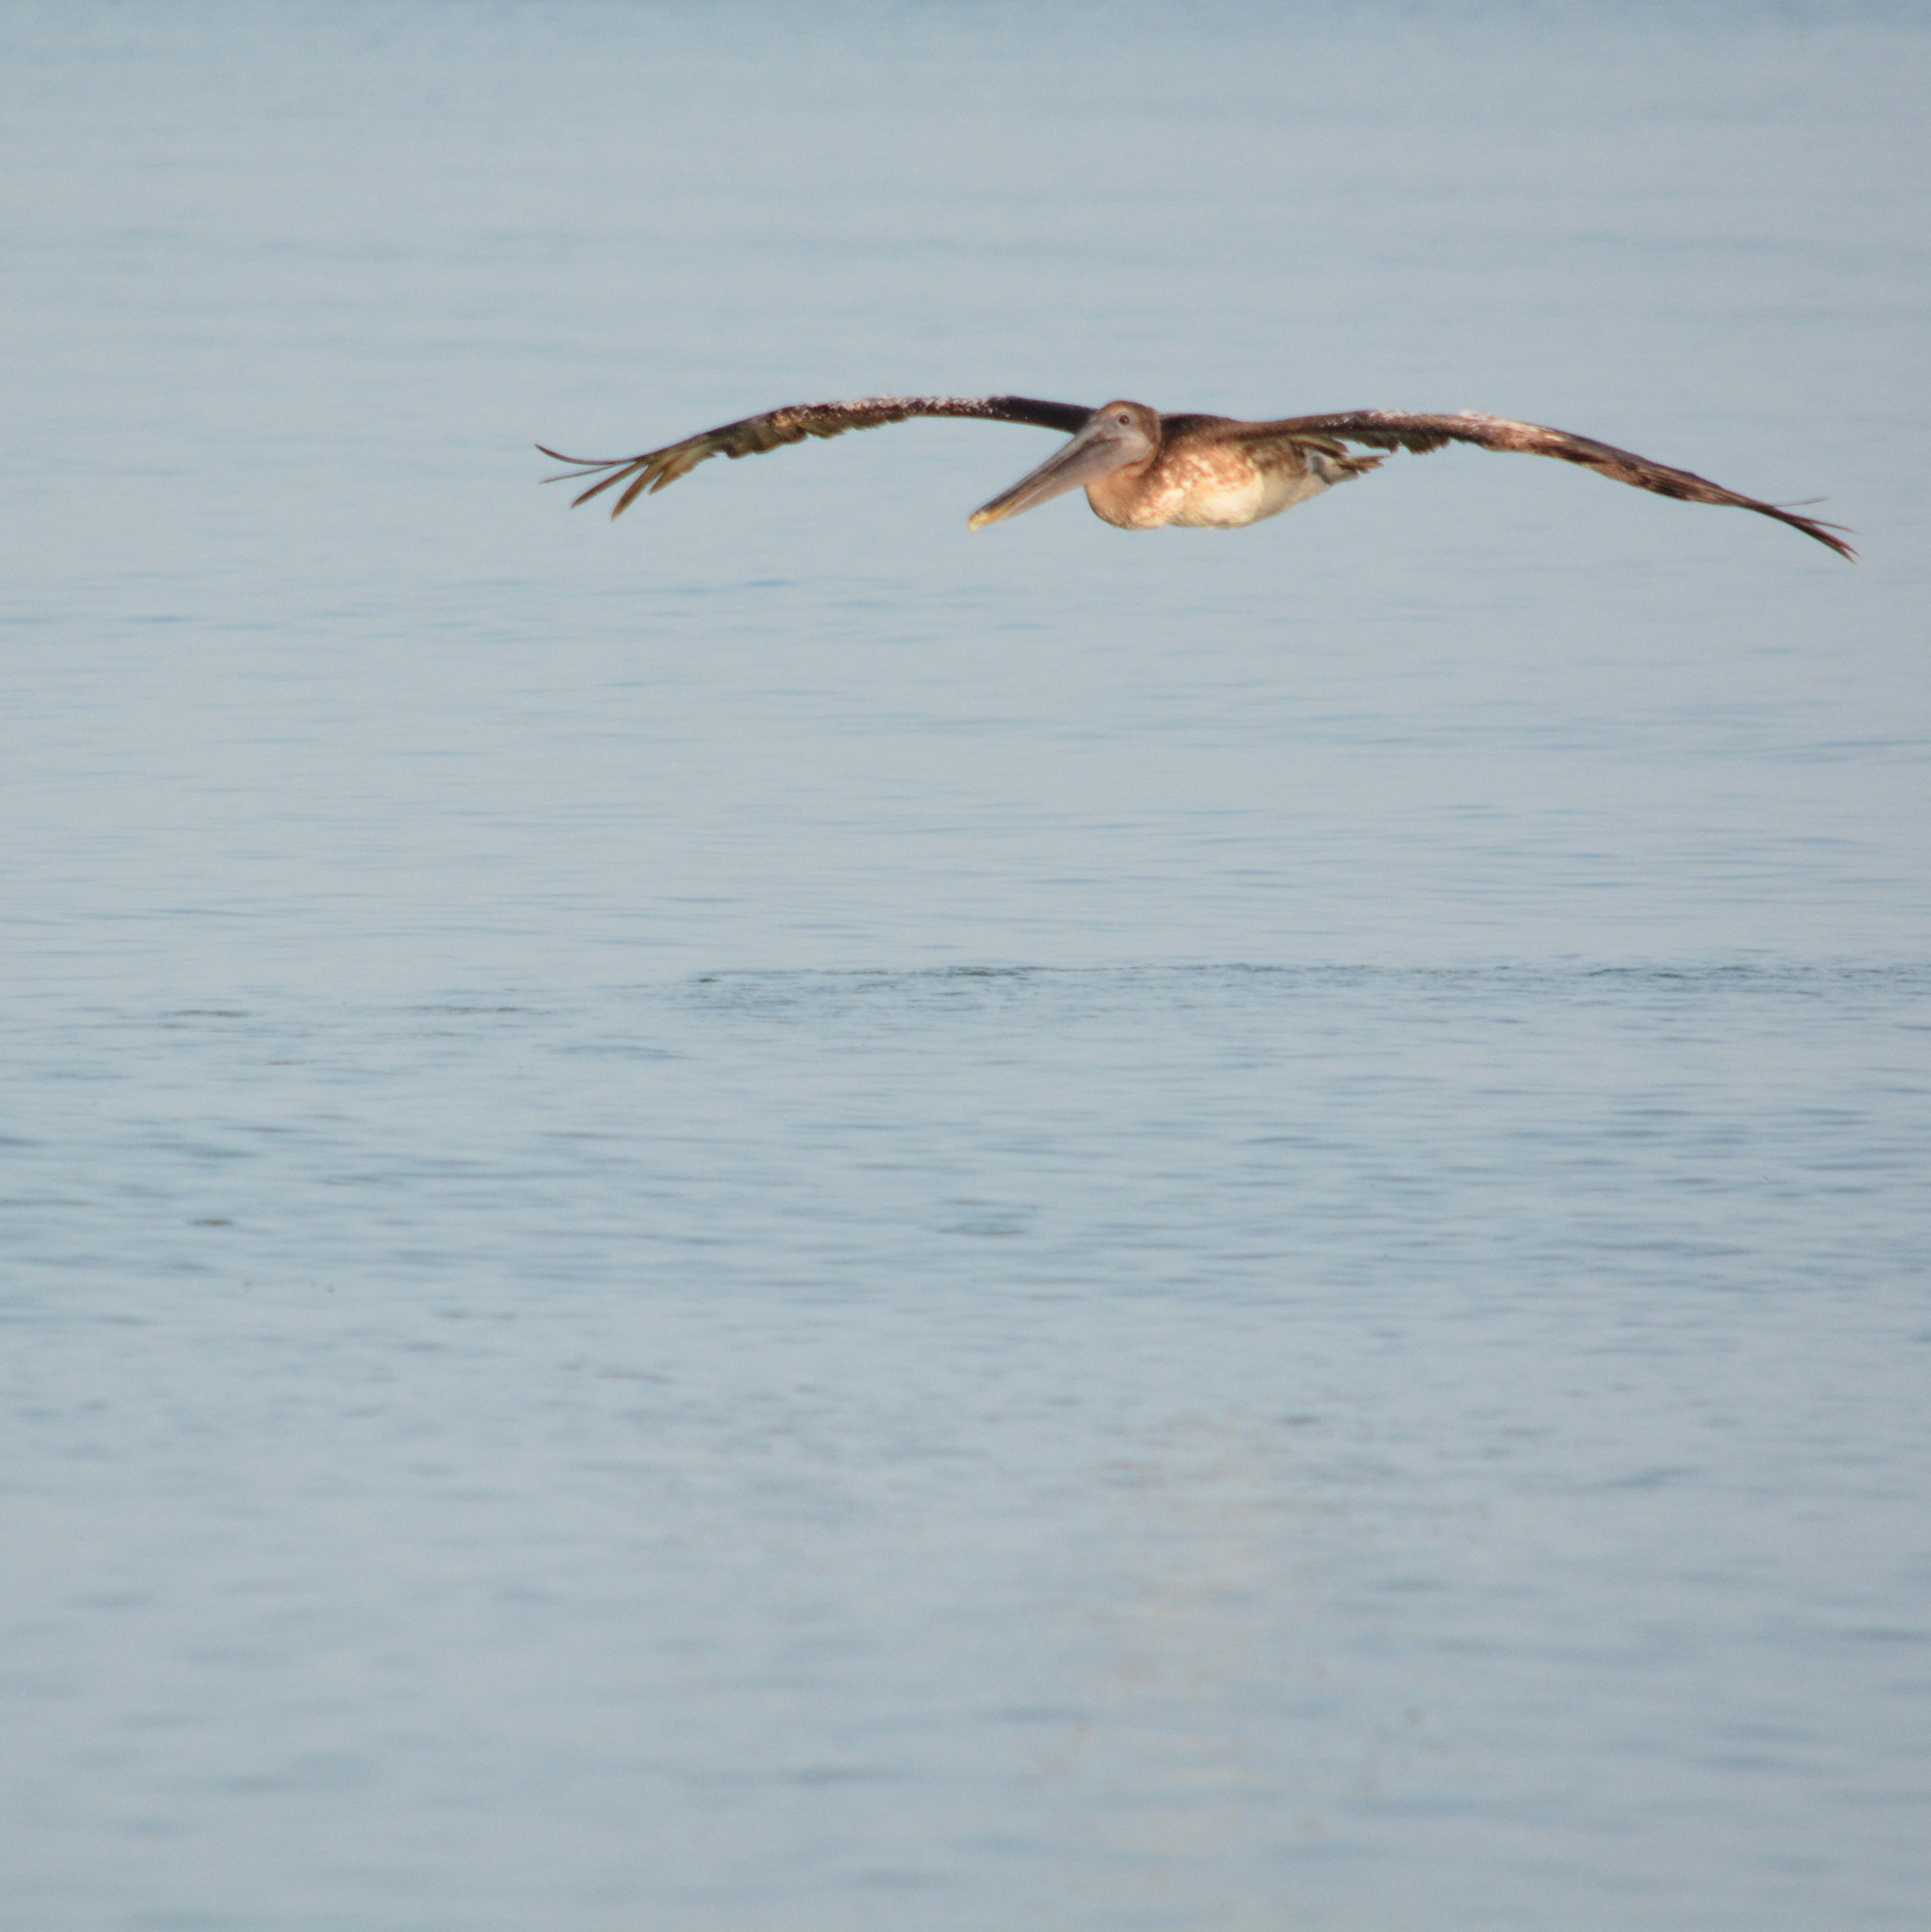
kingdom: Animalia
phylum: Chordata
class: Aves
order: Pelecaniformes
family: Pelecanidae
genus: Pelecanus
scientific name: Pelecanus occidentalis
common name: Brown pelican
